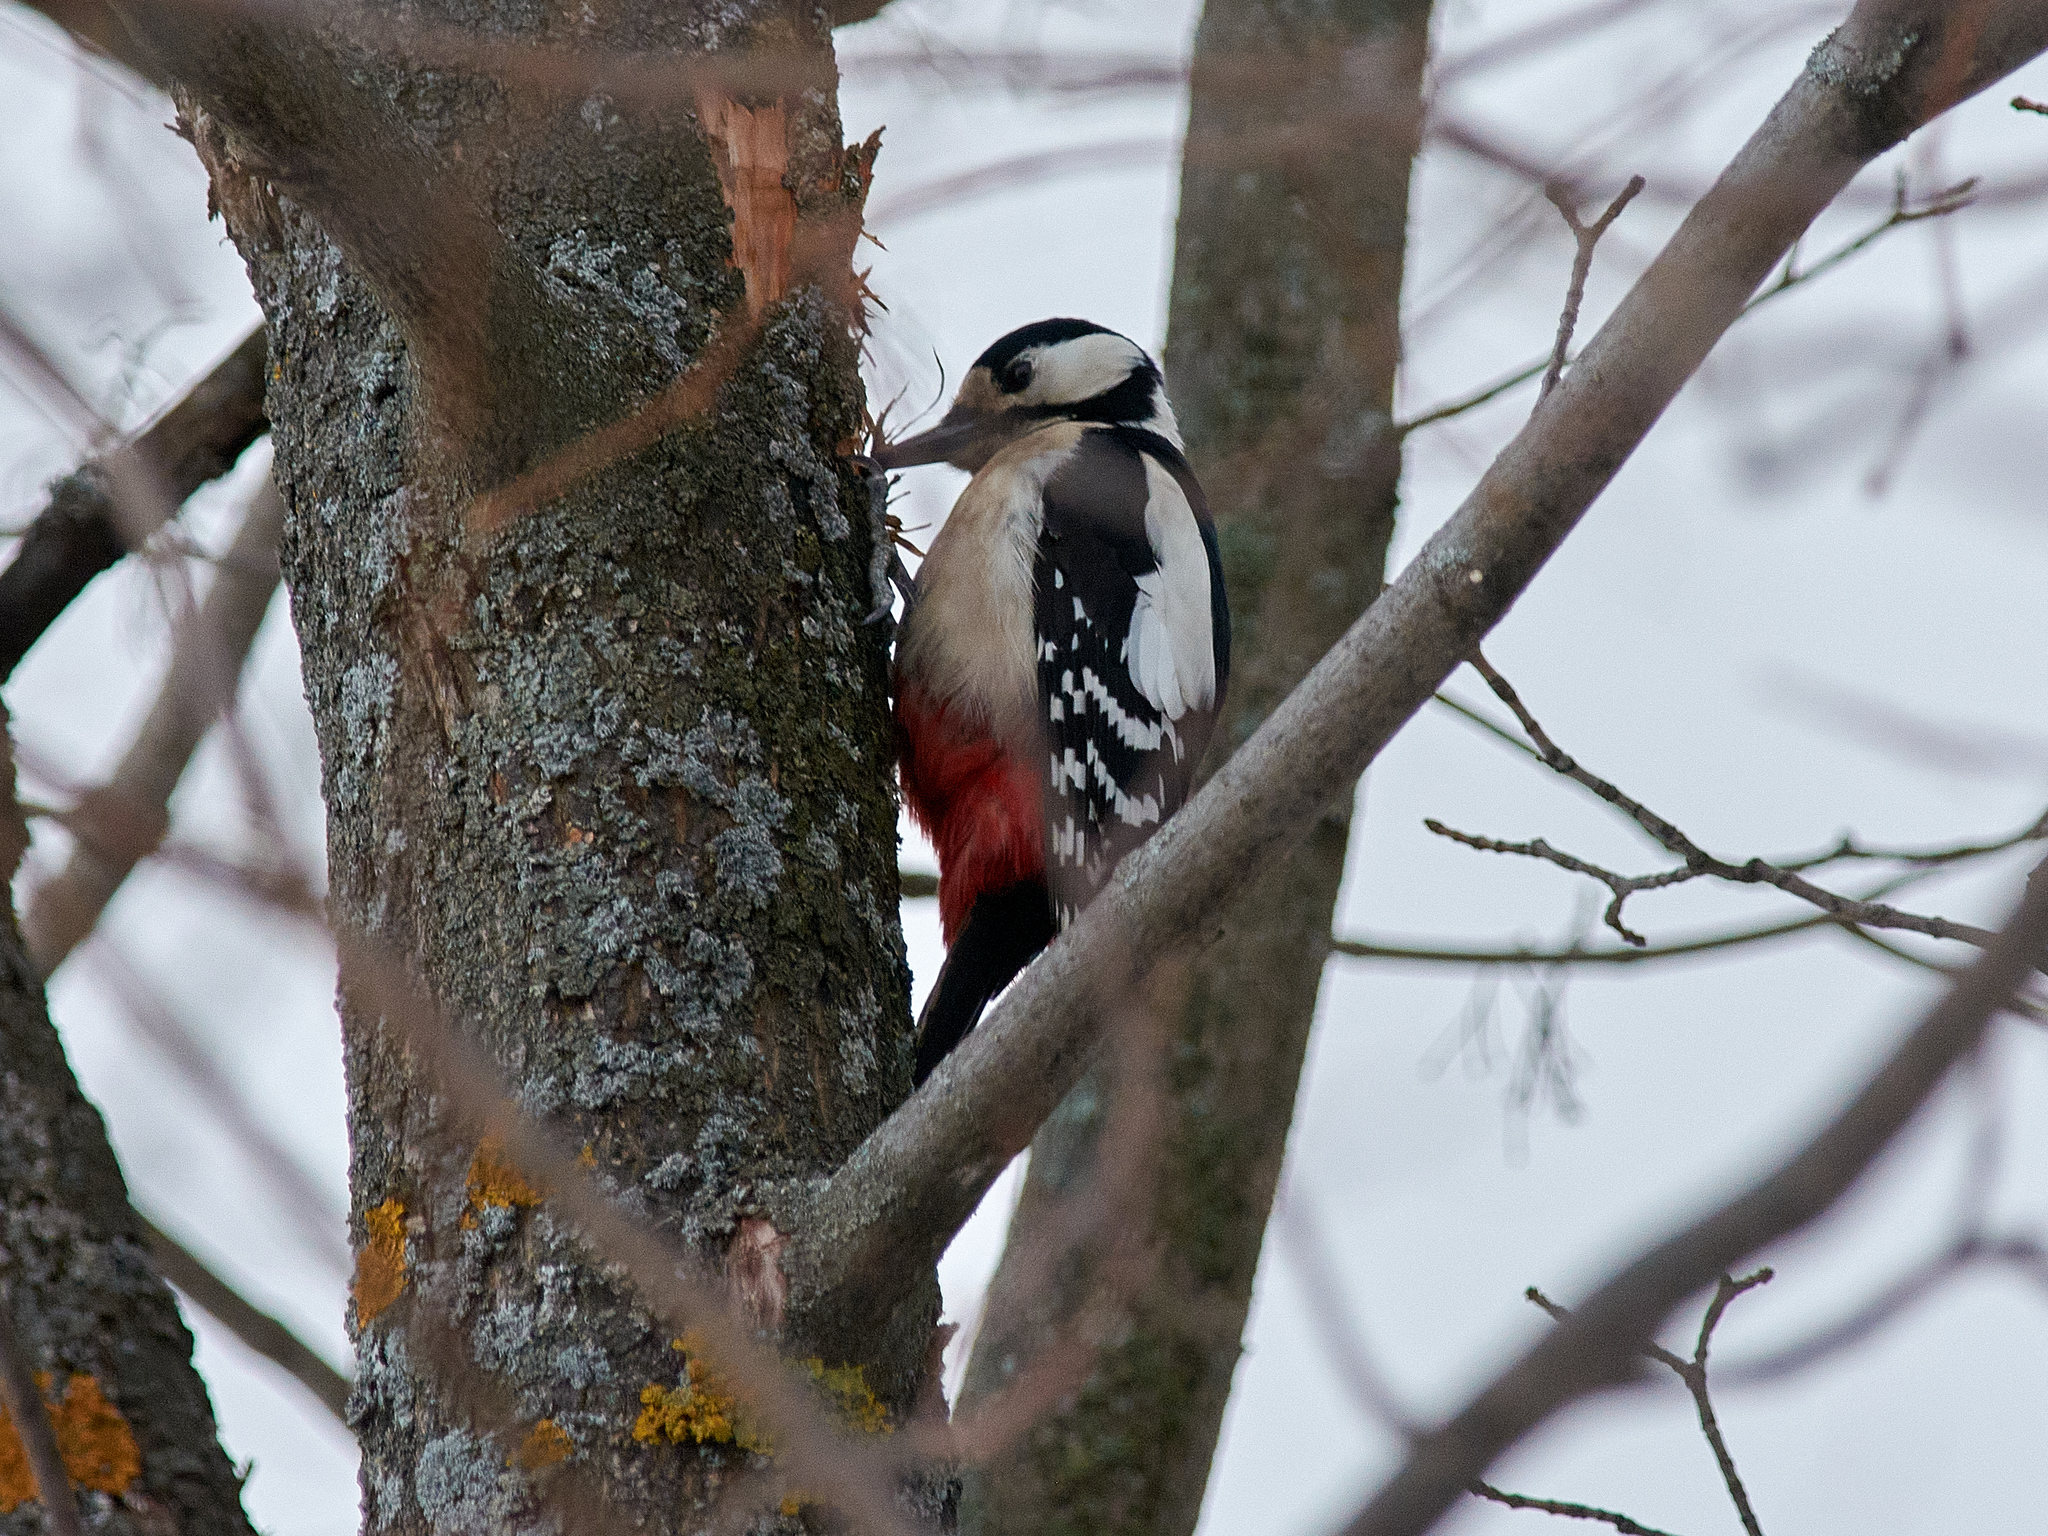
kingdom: Animalia
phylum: Chordata
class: Aves
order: Piciformes
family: Picidae
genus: Dendrocopos
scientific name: Dendrocopos major
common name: Great spotted woodpecker
